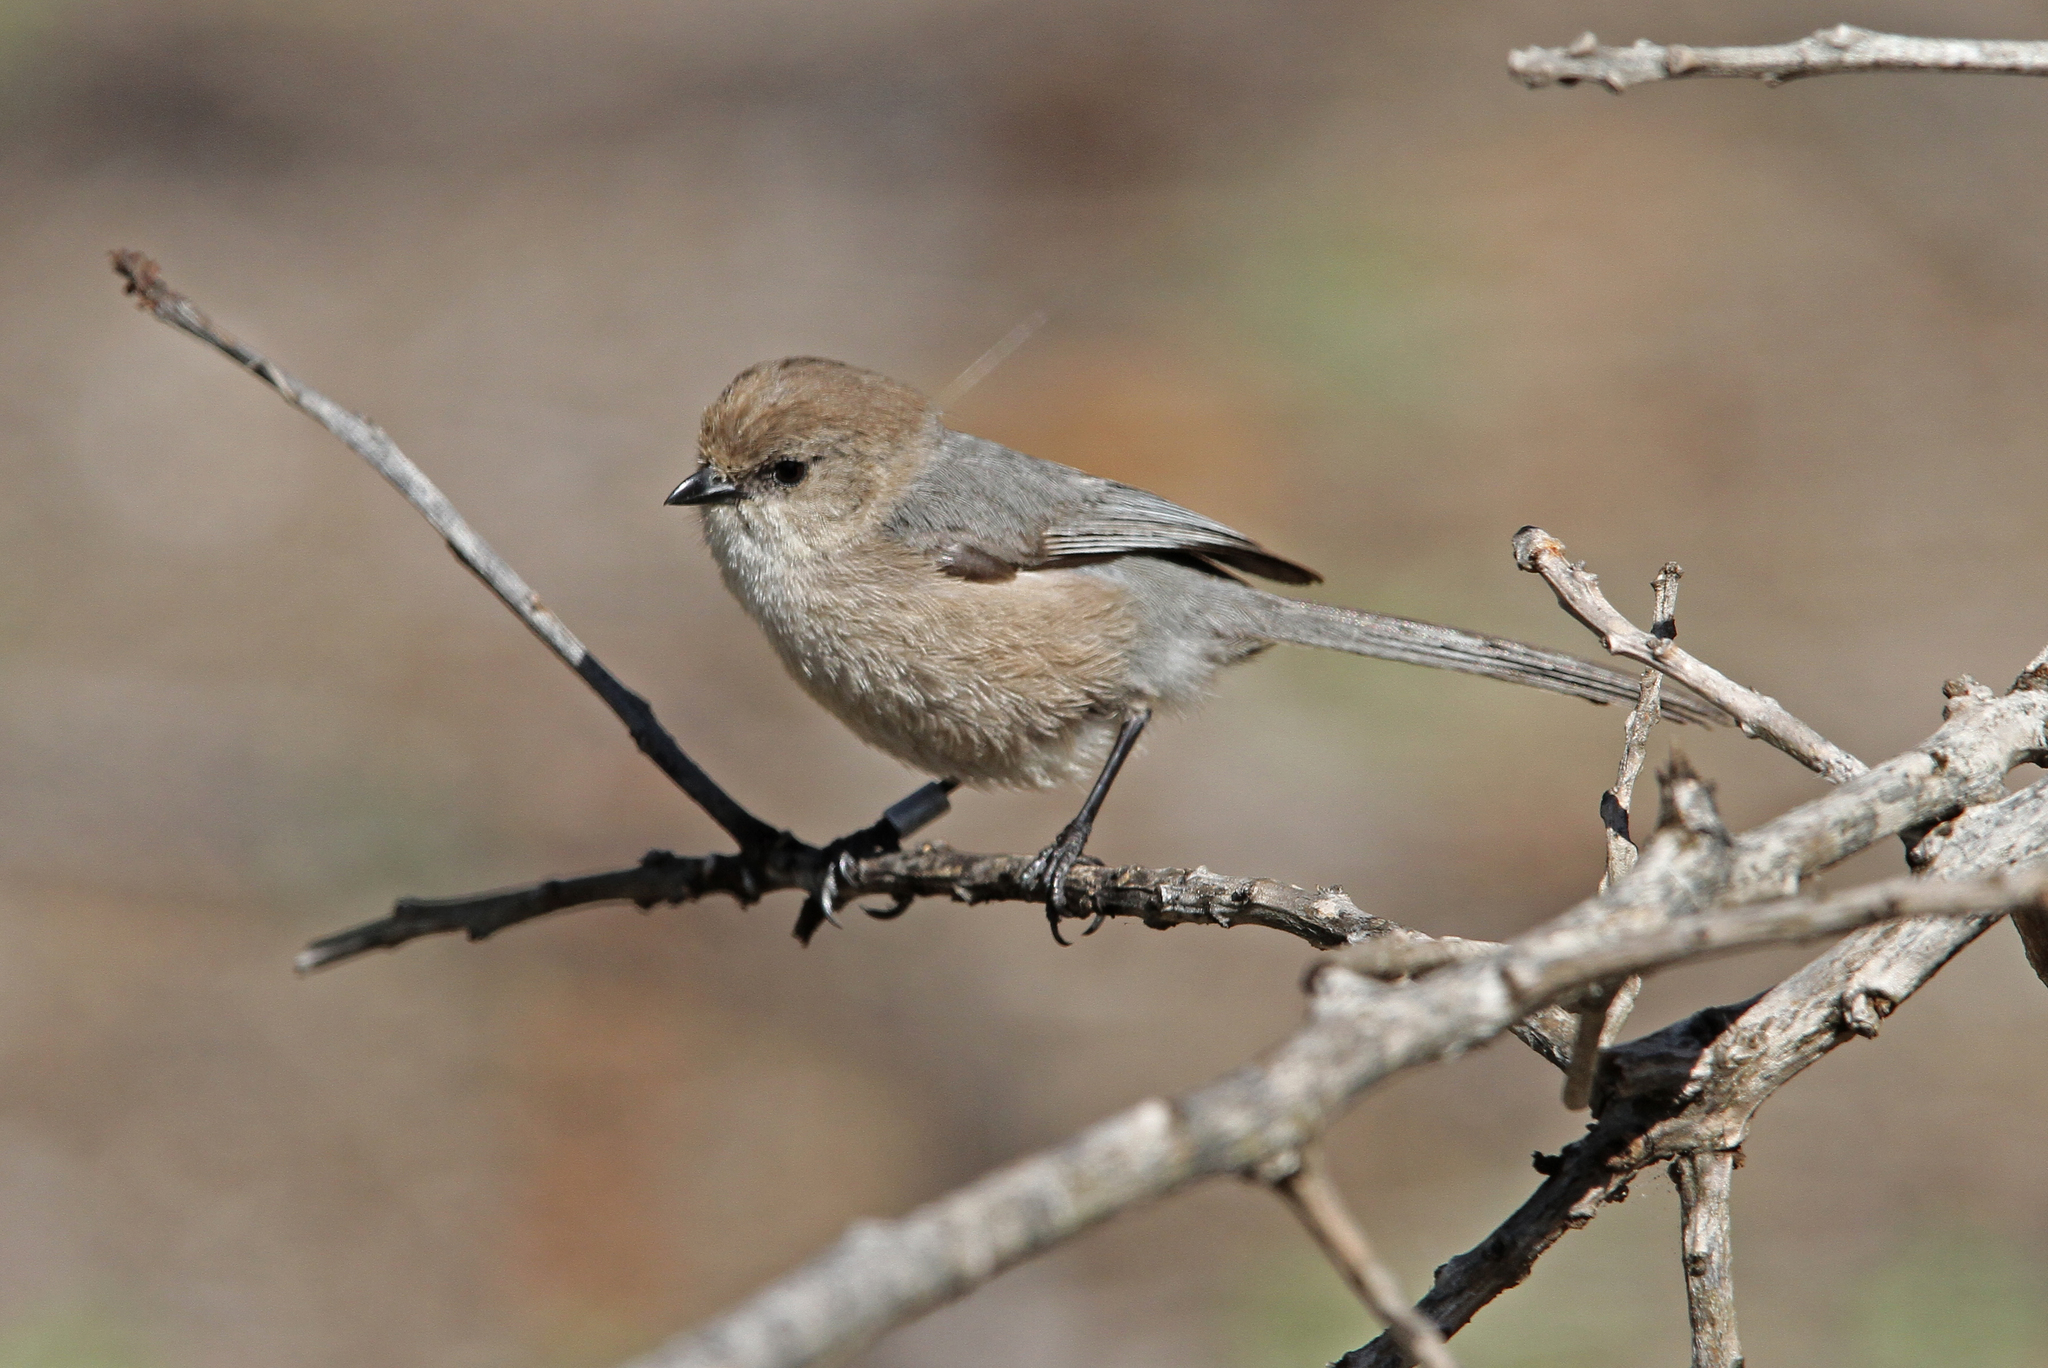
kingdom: Animalia
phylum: Chordata
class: Aves
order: Passeriformes
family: Aegithalidae
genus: Psaltriparus
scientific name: Psaltriparus minimus
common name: American bushtit
